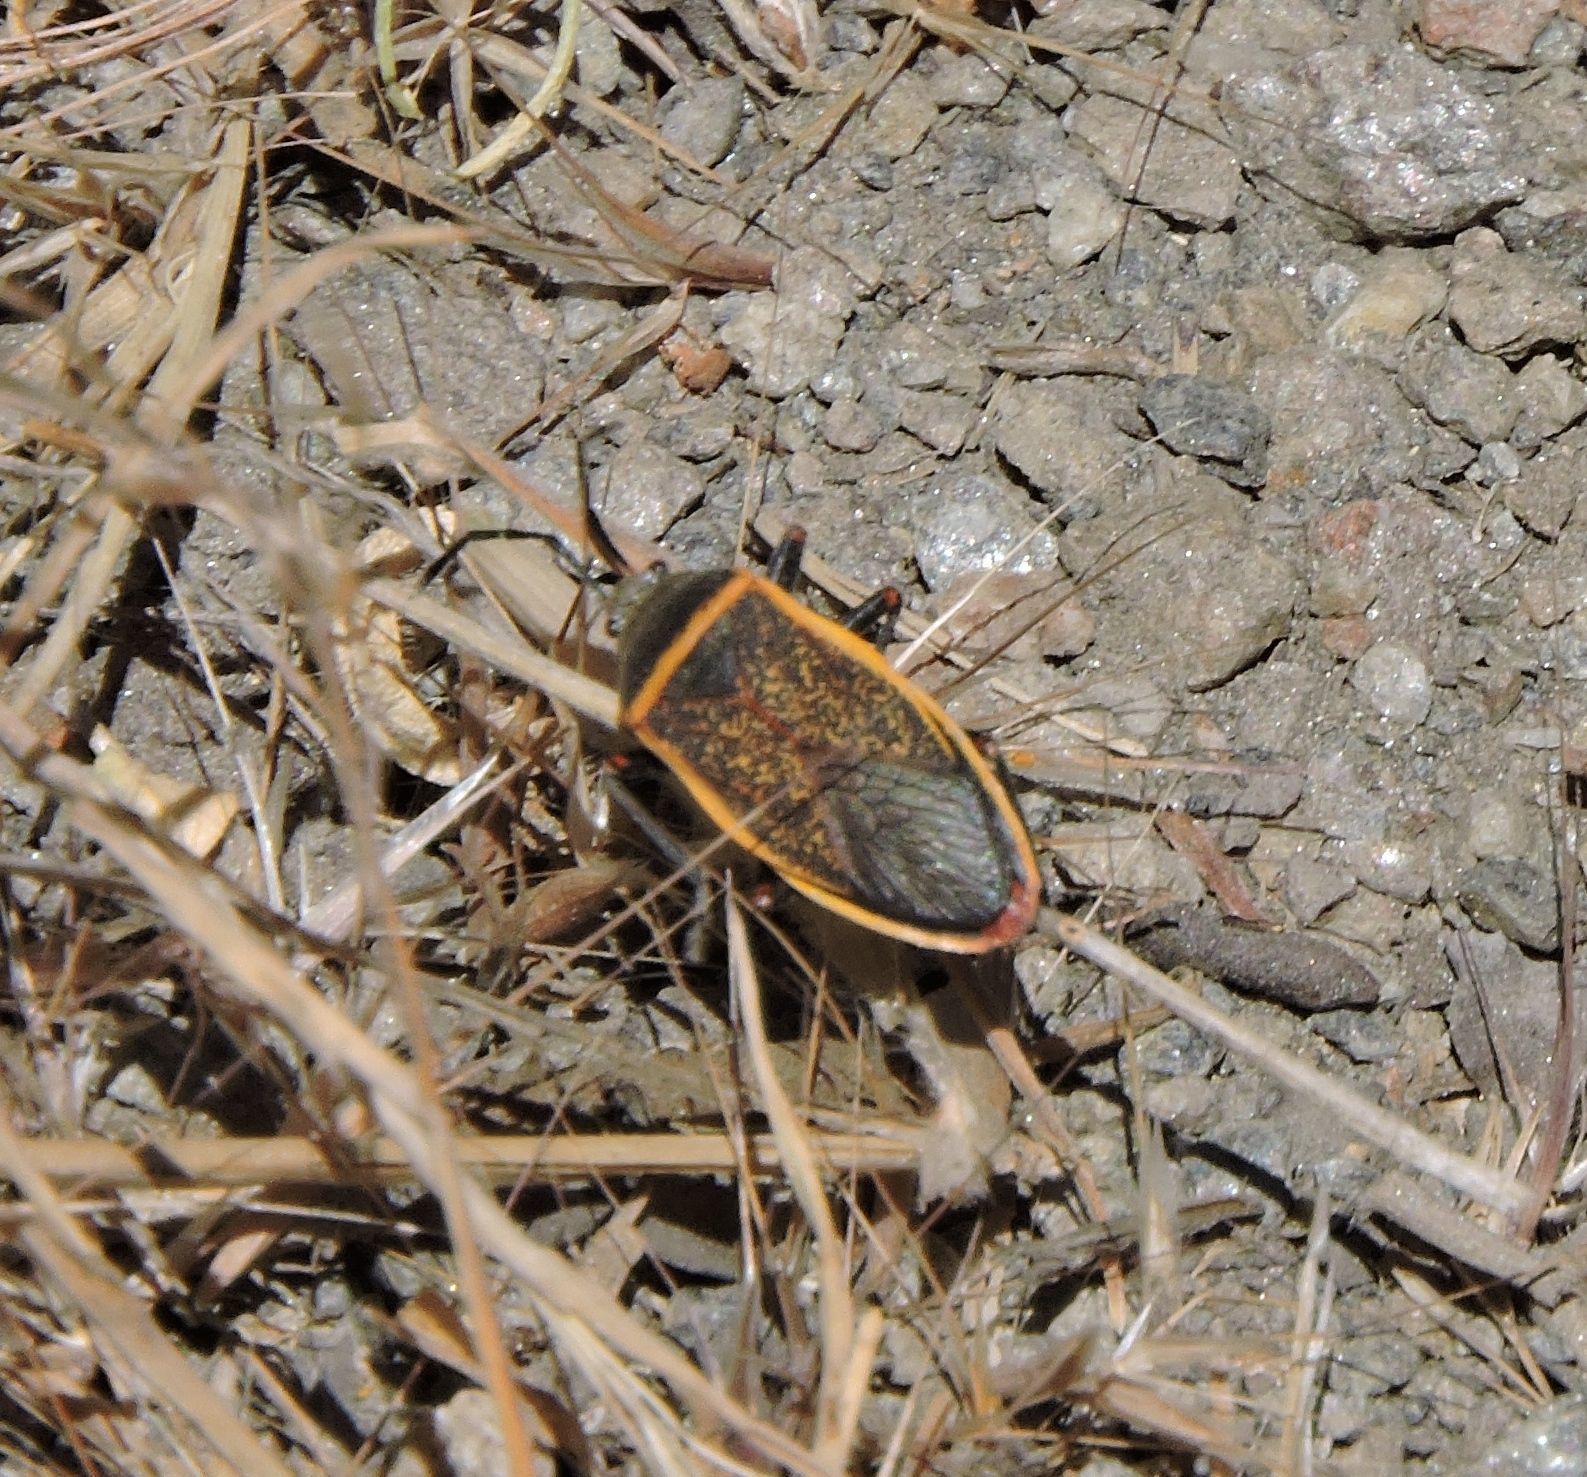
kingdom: Animalia
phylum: Arthropoda
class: Insecta
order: Hemiptera
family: Largidae
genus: Largus
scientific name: Largus californicus
